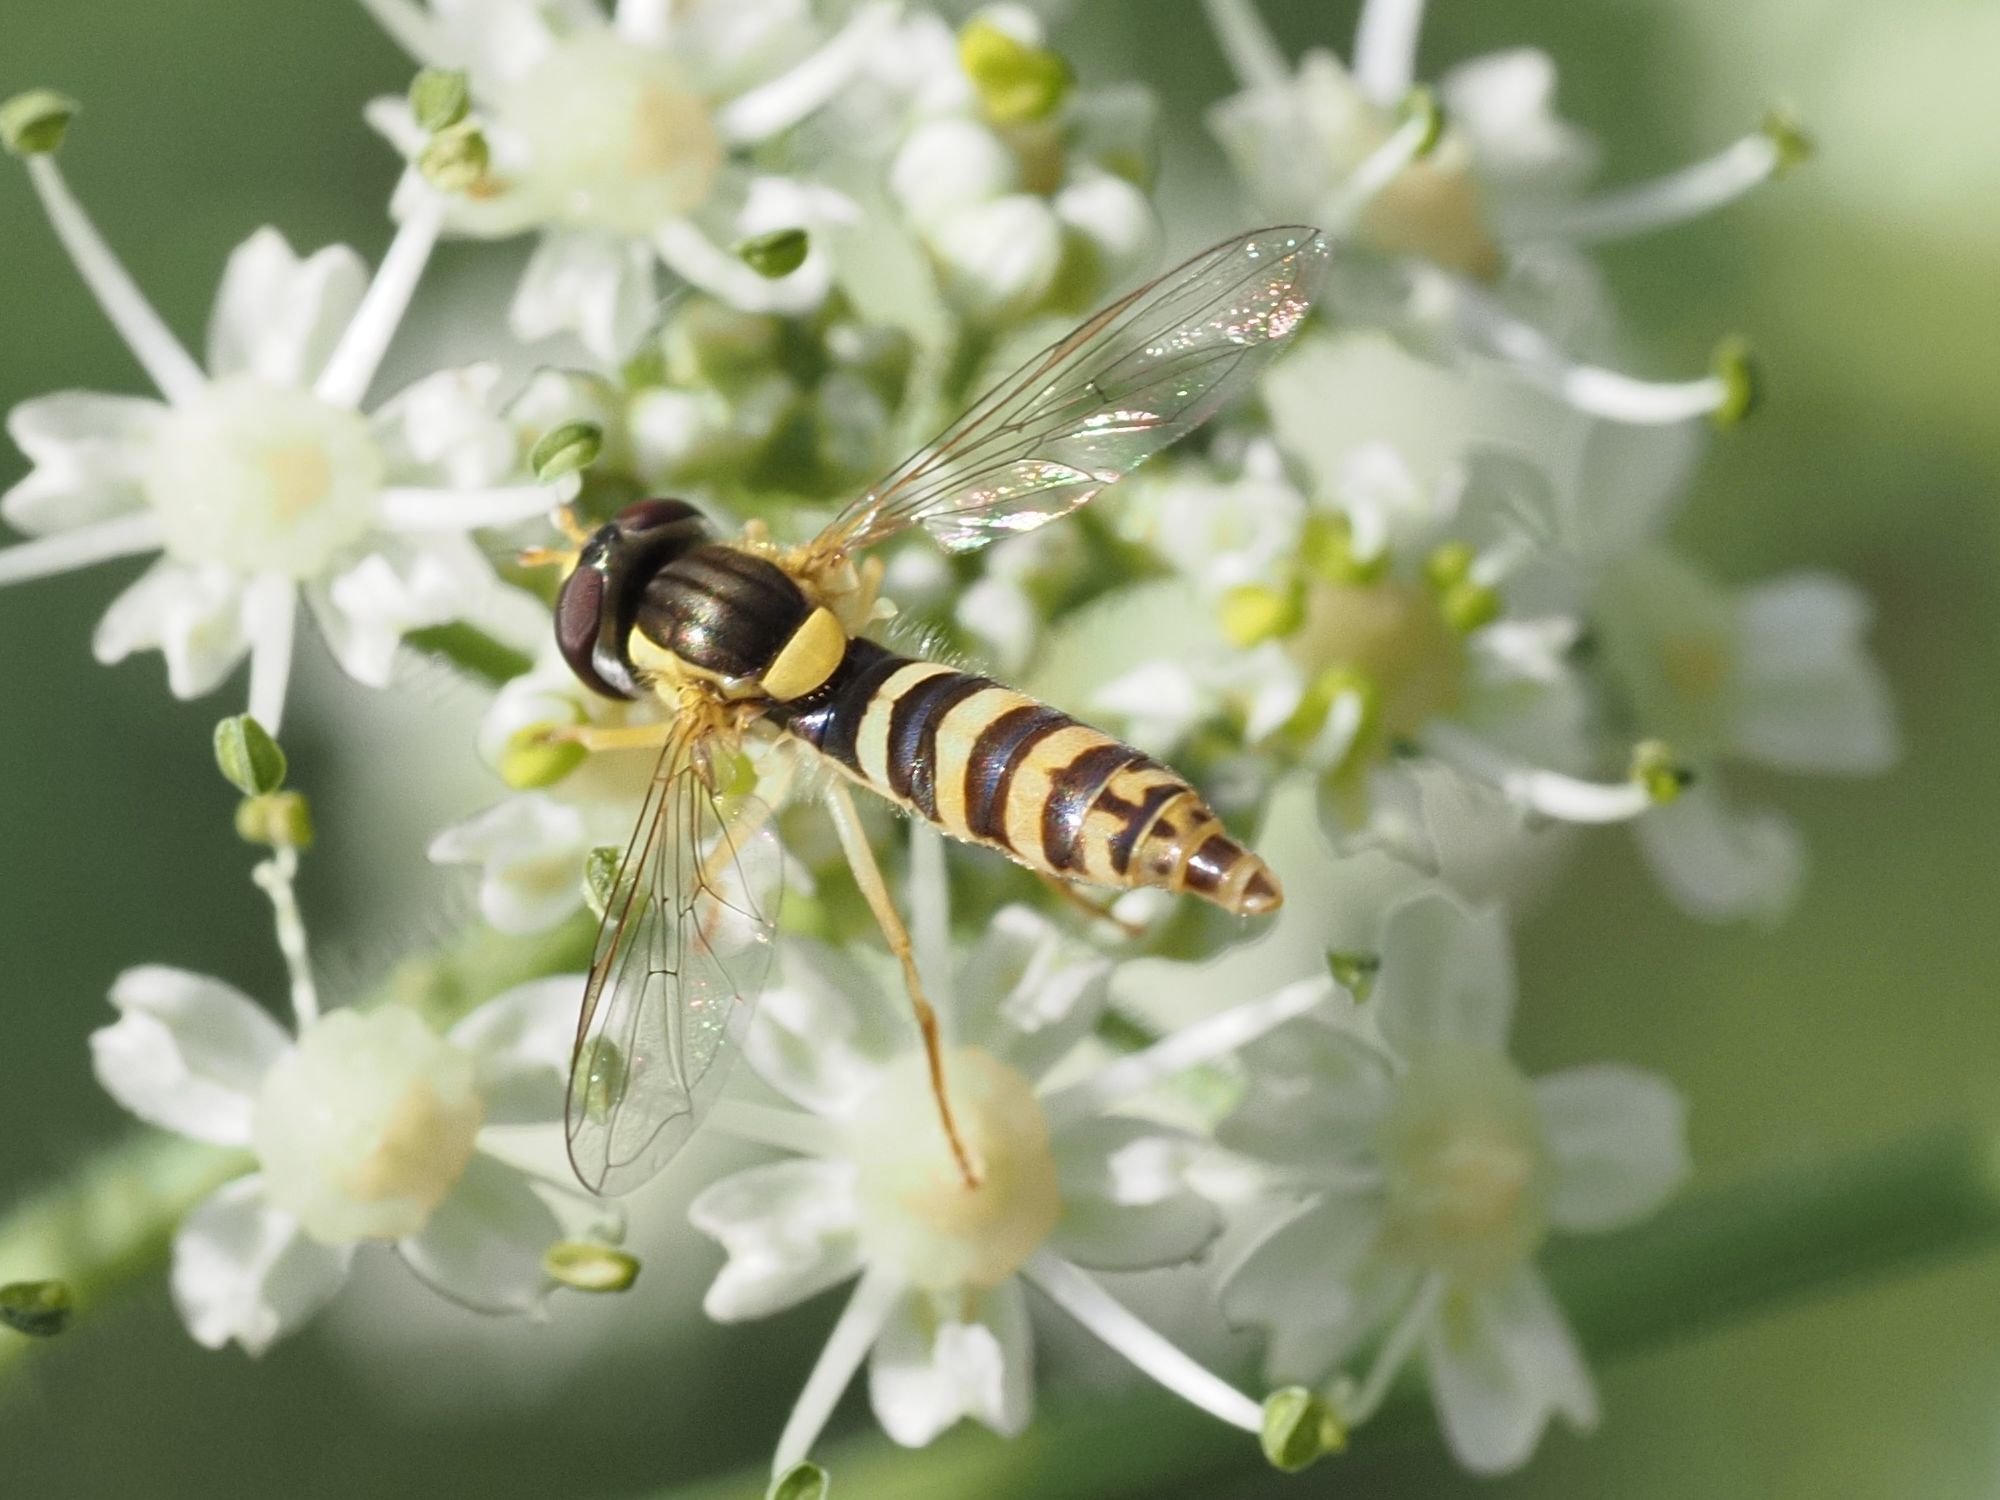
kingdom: Animalia
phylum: Arthropoda
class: Insecta
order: Diptera
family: Syrphidae
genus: Sphaerophoria
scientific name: Sphaerophoria
